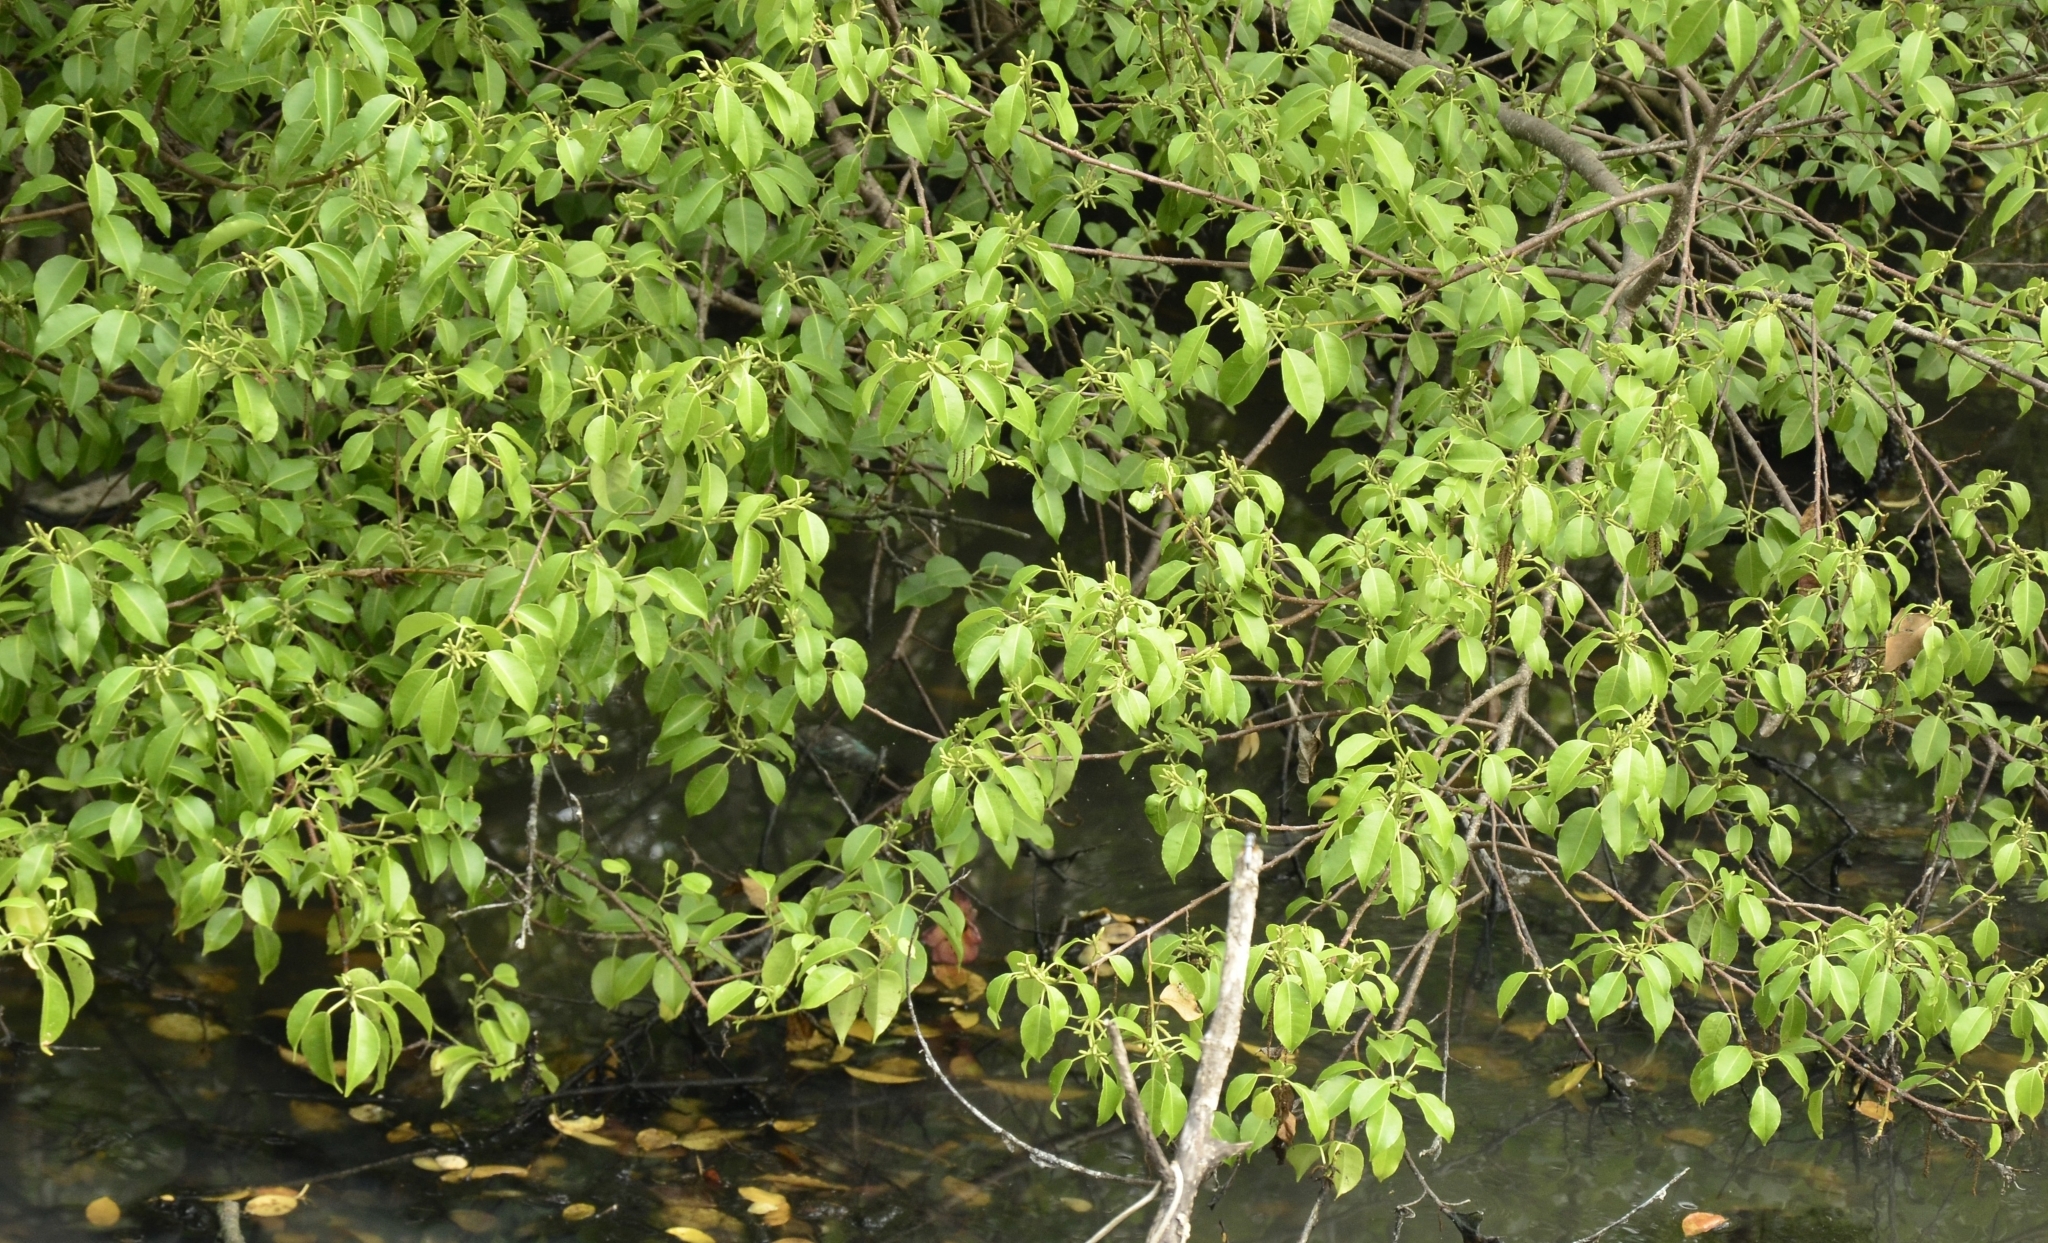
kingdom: Plantae
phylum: Tracheophyta
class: Magnoliopsida
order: Malpighiales
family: Euphorbiaceae
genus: Excoecaria
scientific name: Excoecaria agallocha
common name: River poisontree
